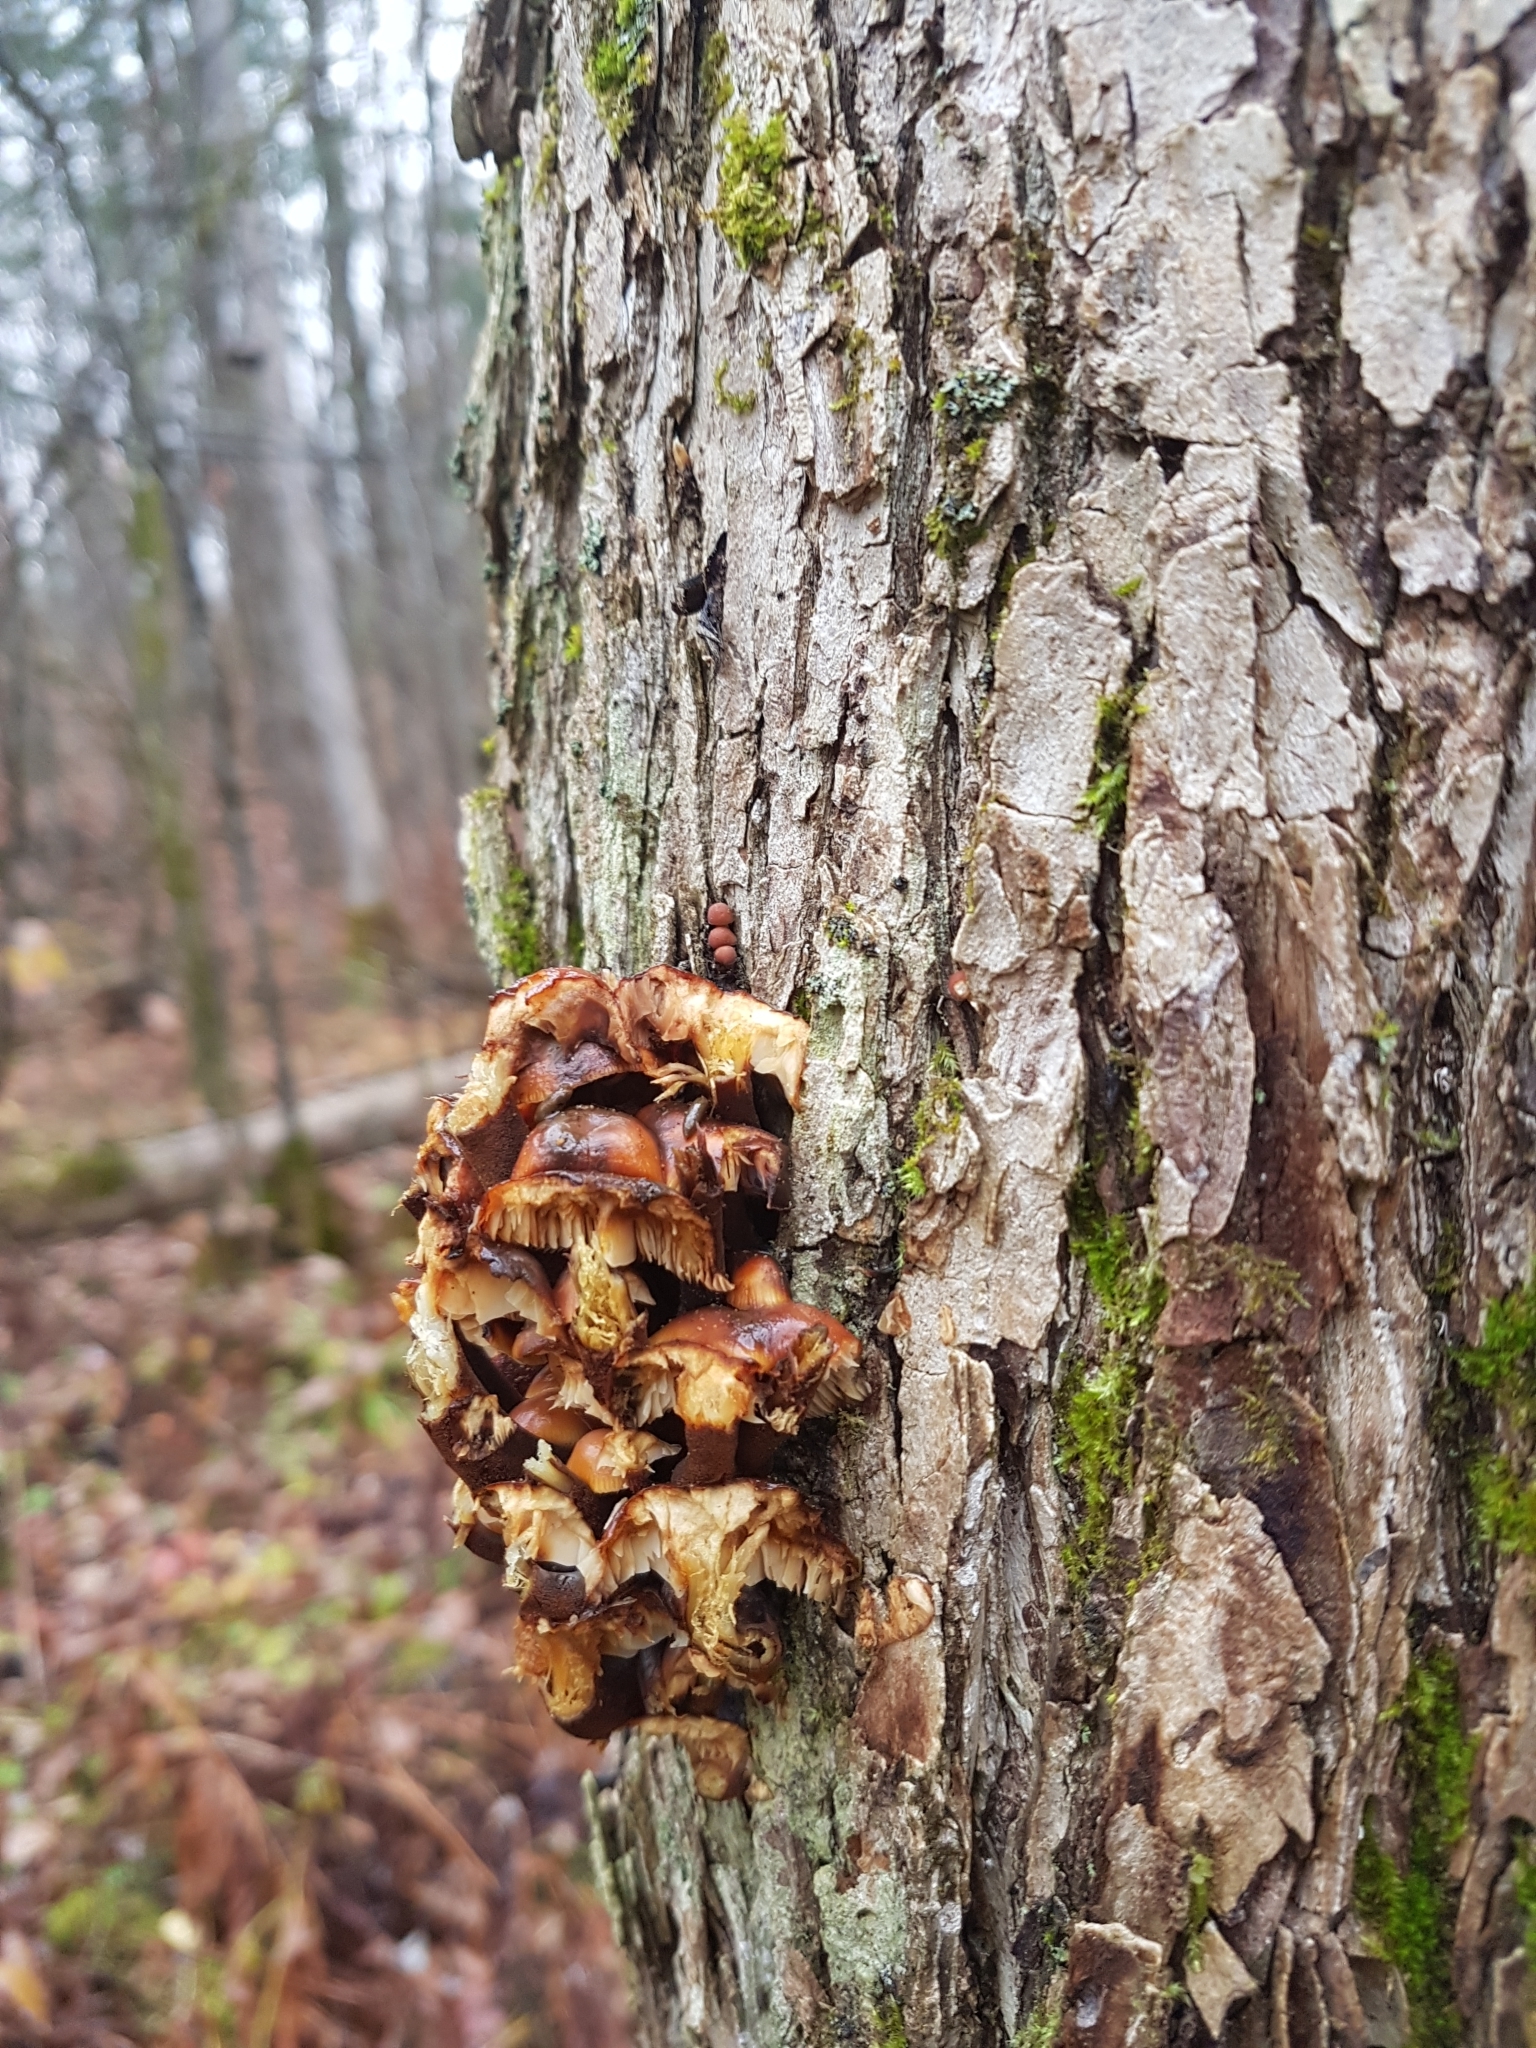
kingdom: Fungi
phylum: Basidiomycota
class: Agaricomycetes
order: Agaricales
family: Physalacriaceae
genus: Flammulina
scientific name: Flammulina velutipes
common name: Velvet shank
